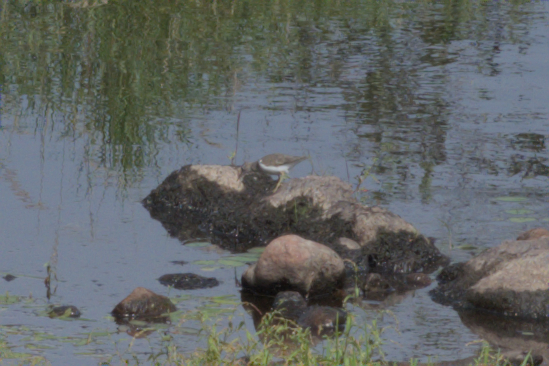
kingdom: Animalia
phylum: Chordata
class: Aves
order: Charadriiformes
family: Scolopacidae
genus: Tringa
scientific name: Tringa solitaria
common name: Solitary sandpiper
